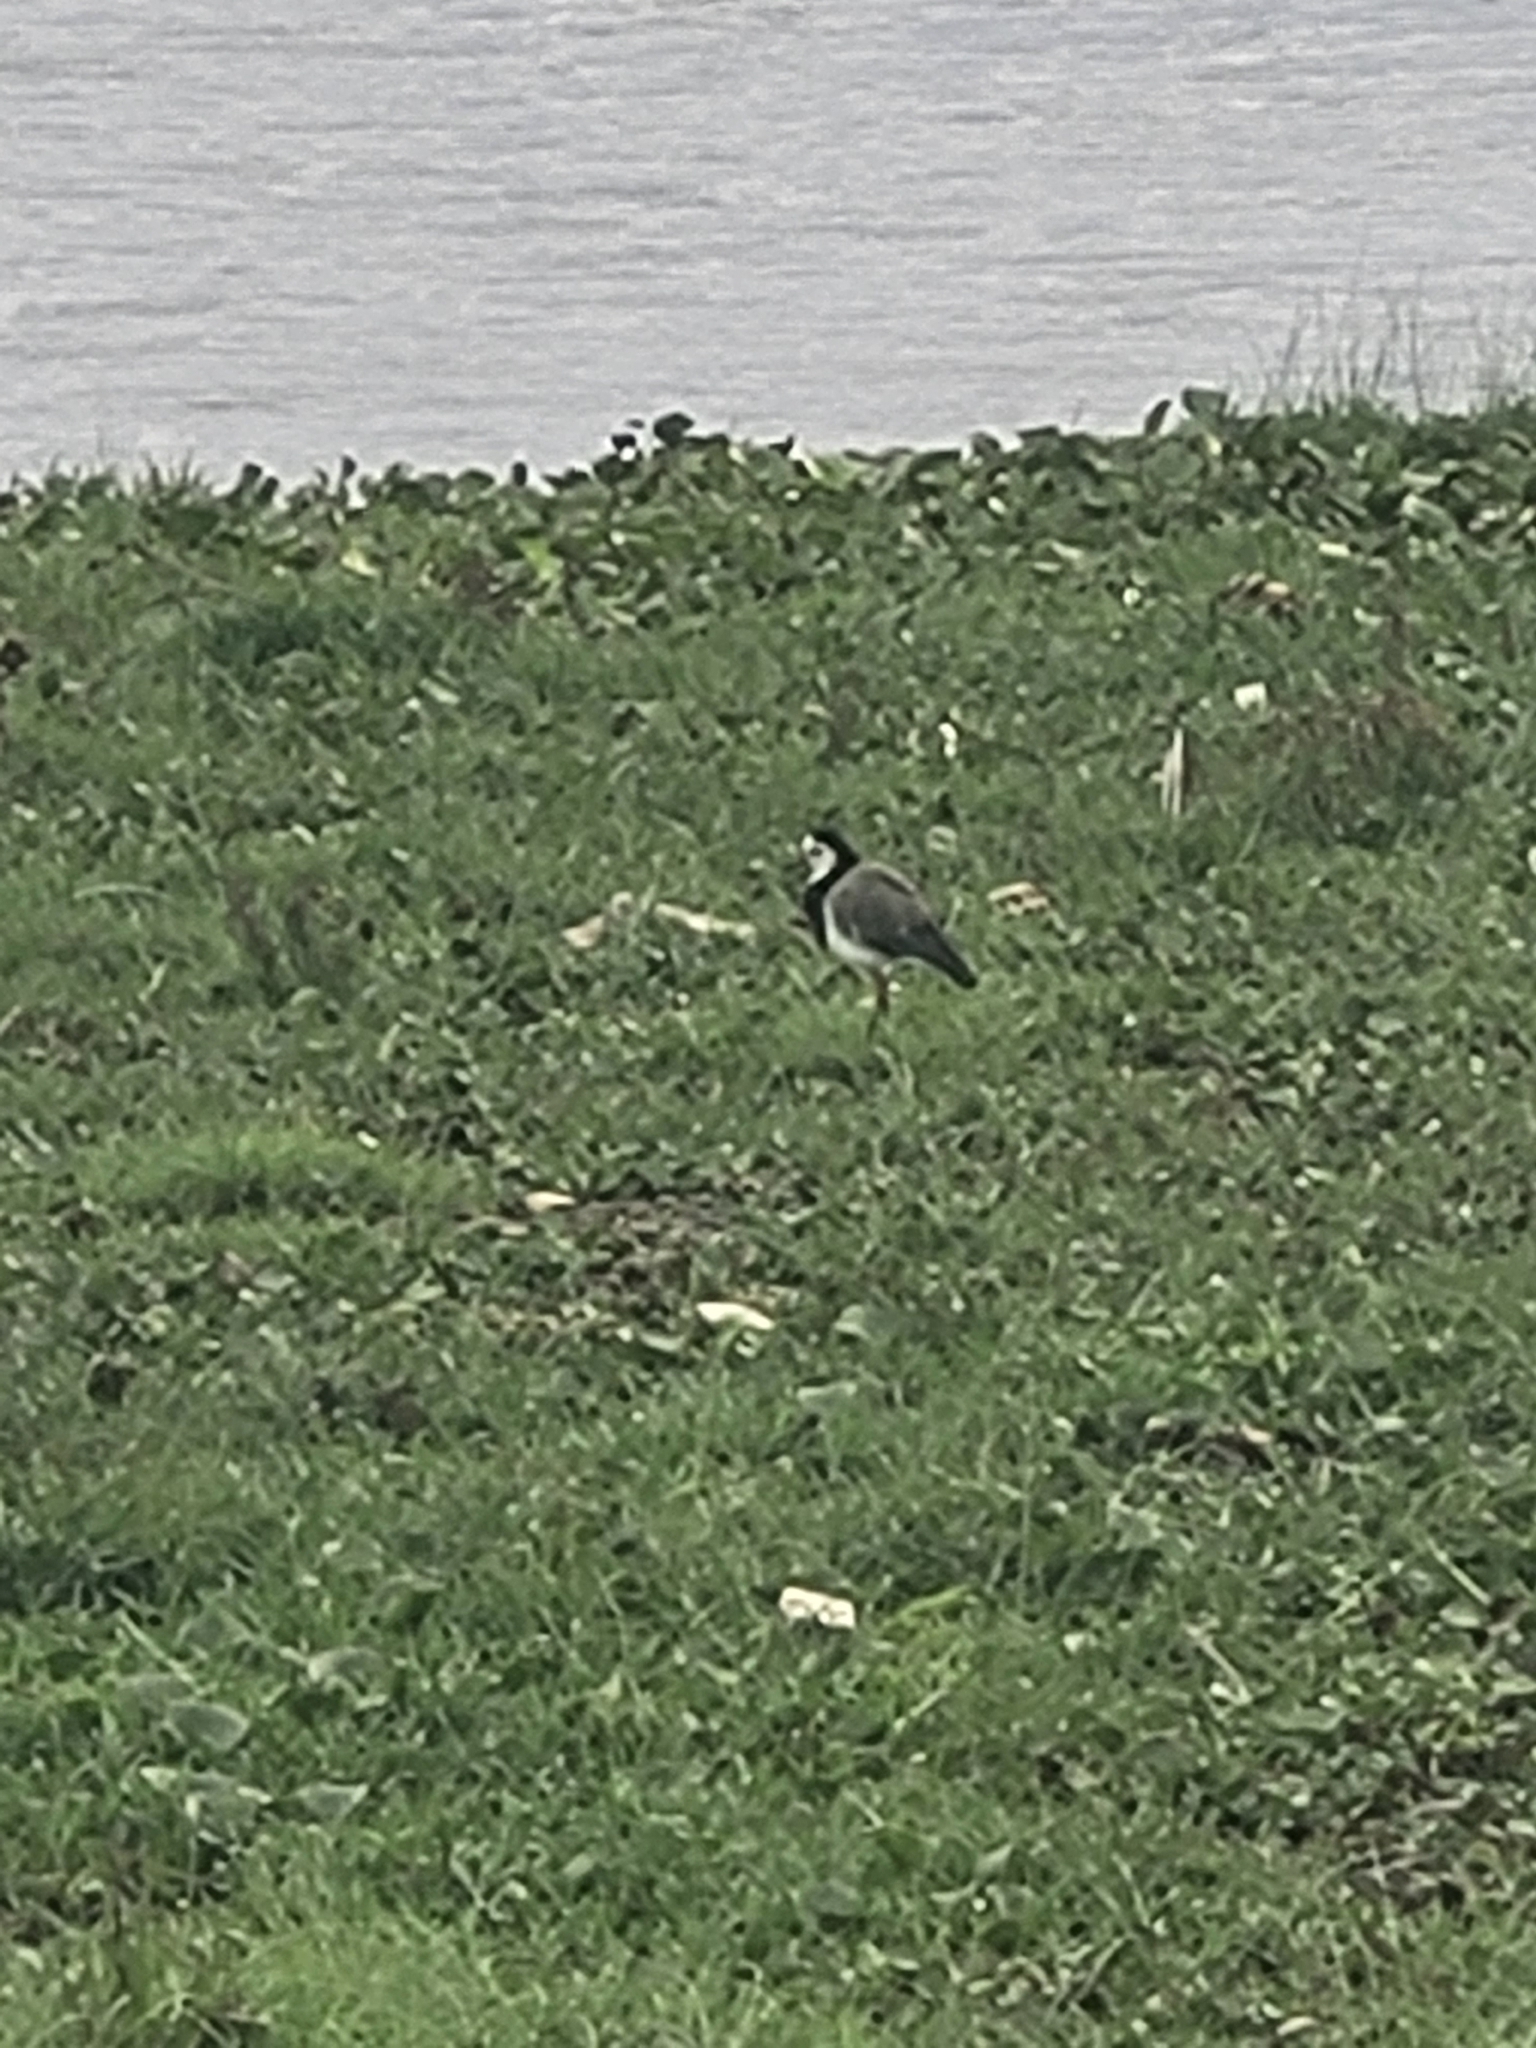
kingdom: Animalia
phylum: Chordata
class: Aves
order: Charadriiformes
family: Charadriidae
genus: Vanellus
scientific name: Vanellus crassirostris
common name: Long-toed lapwing
